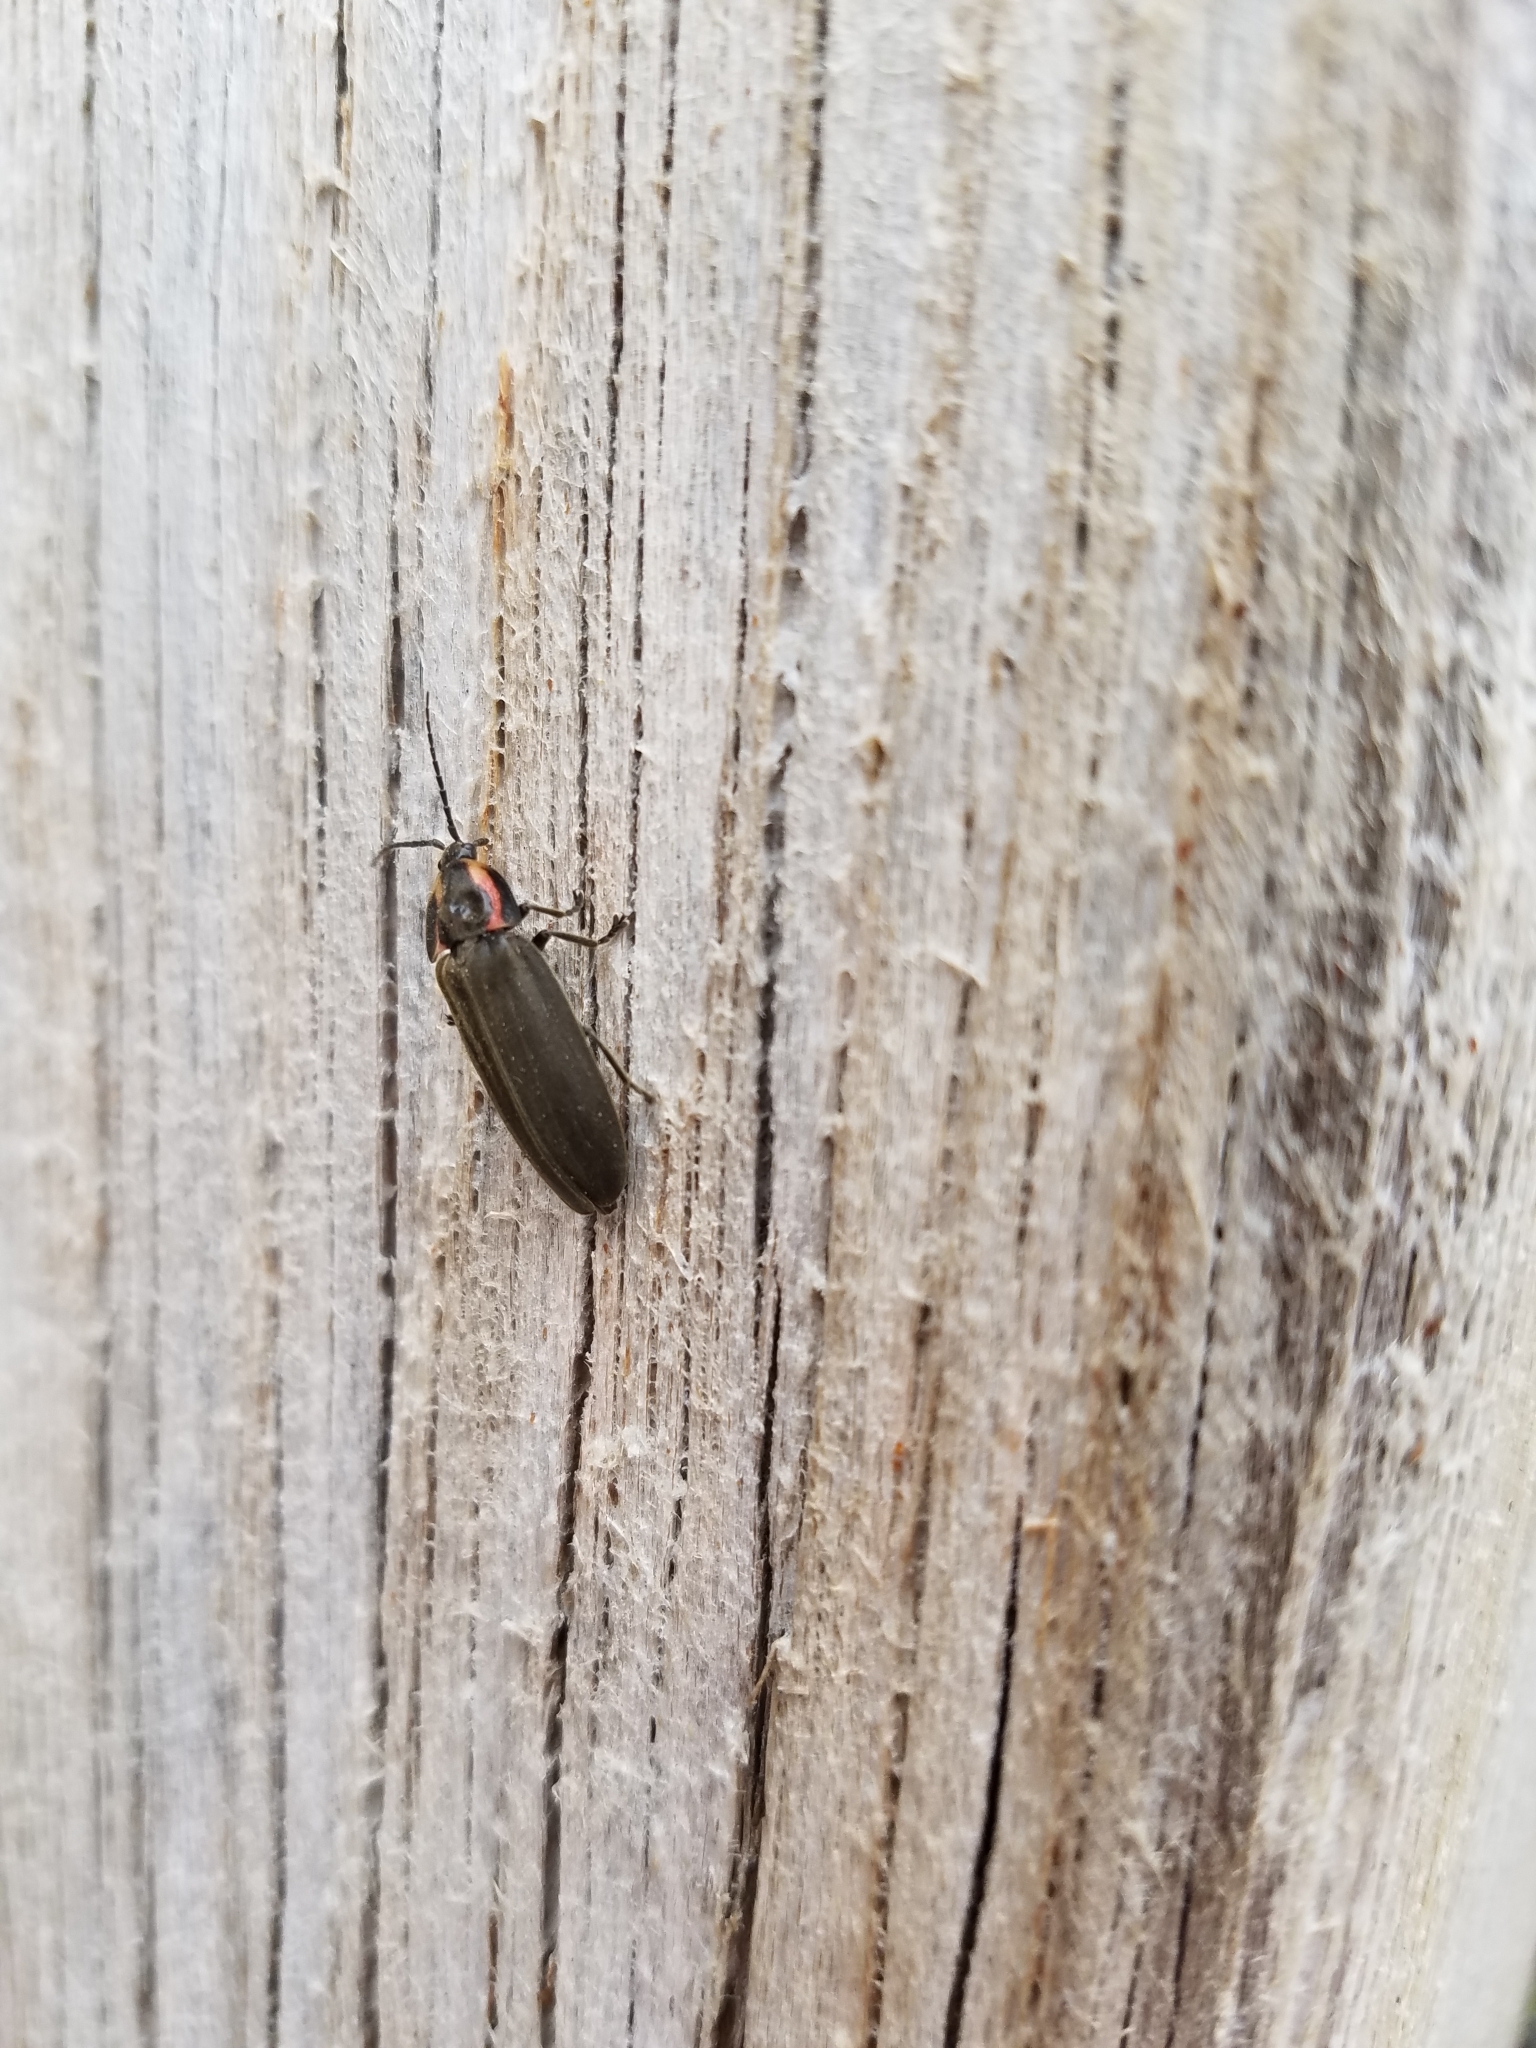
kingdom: Animalia
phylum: Arthropoda
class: Insecta
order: Coleoptera
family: Lampyridae
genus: Photinus
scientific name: Photinus corrusca
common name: Winter firefly
